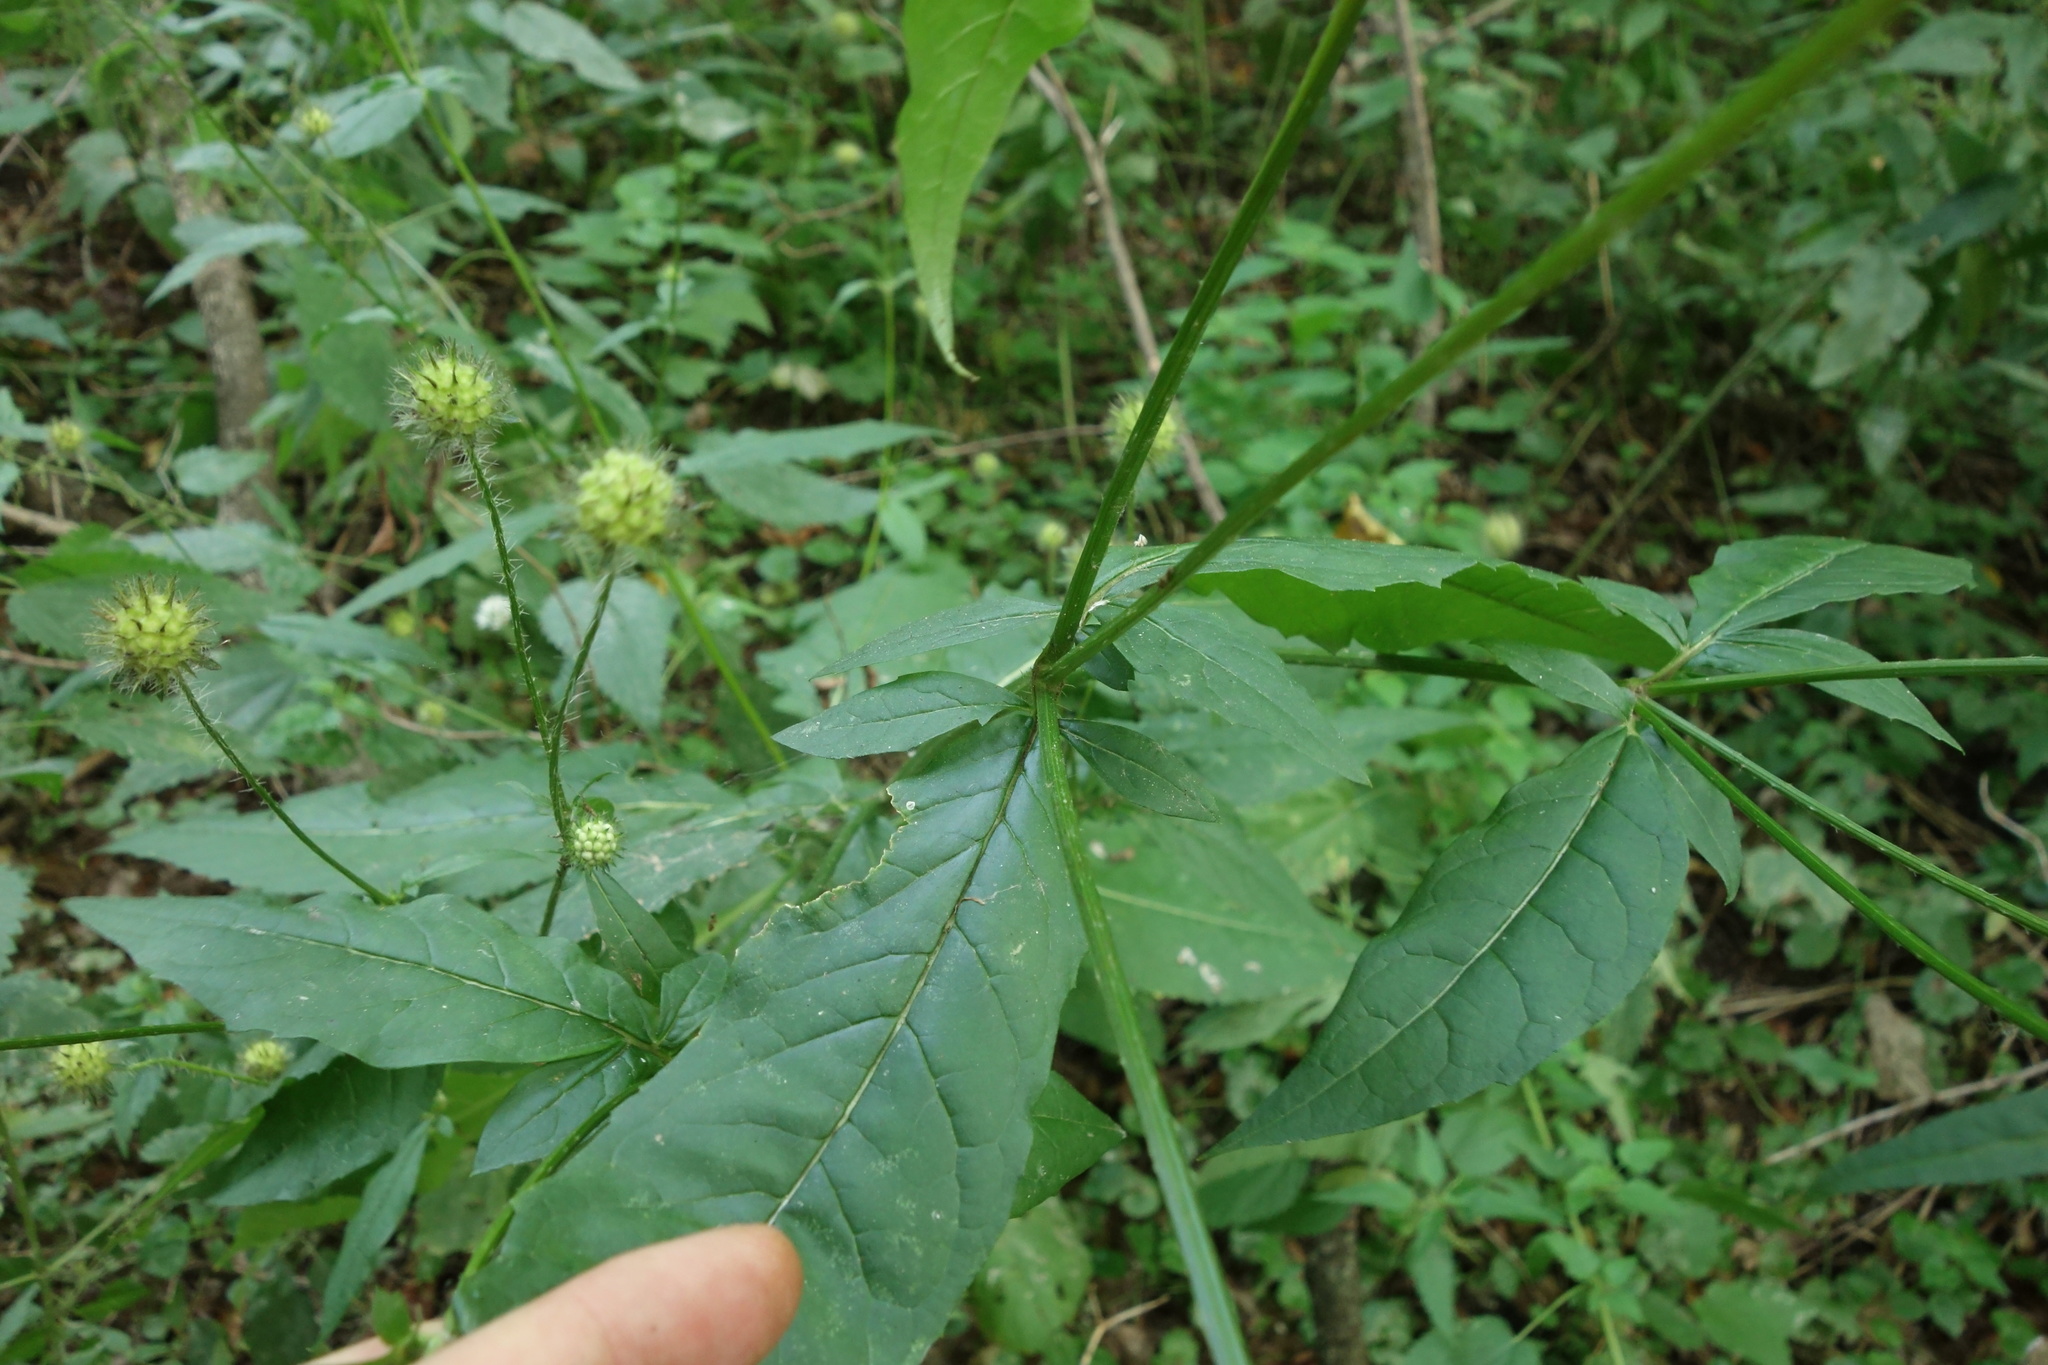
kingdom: Plantae
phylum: Tracheophyta
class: Magnoliopsida
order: Dipsacales
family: Caprifoliaceae
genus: Dipsacus
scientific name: Dipsacus pilosus
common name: Small teasel
